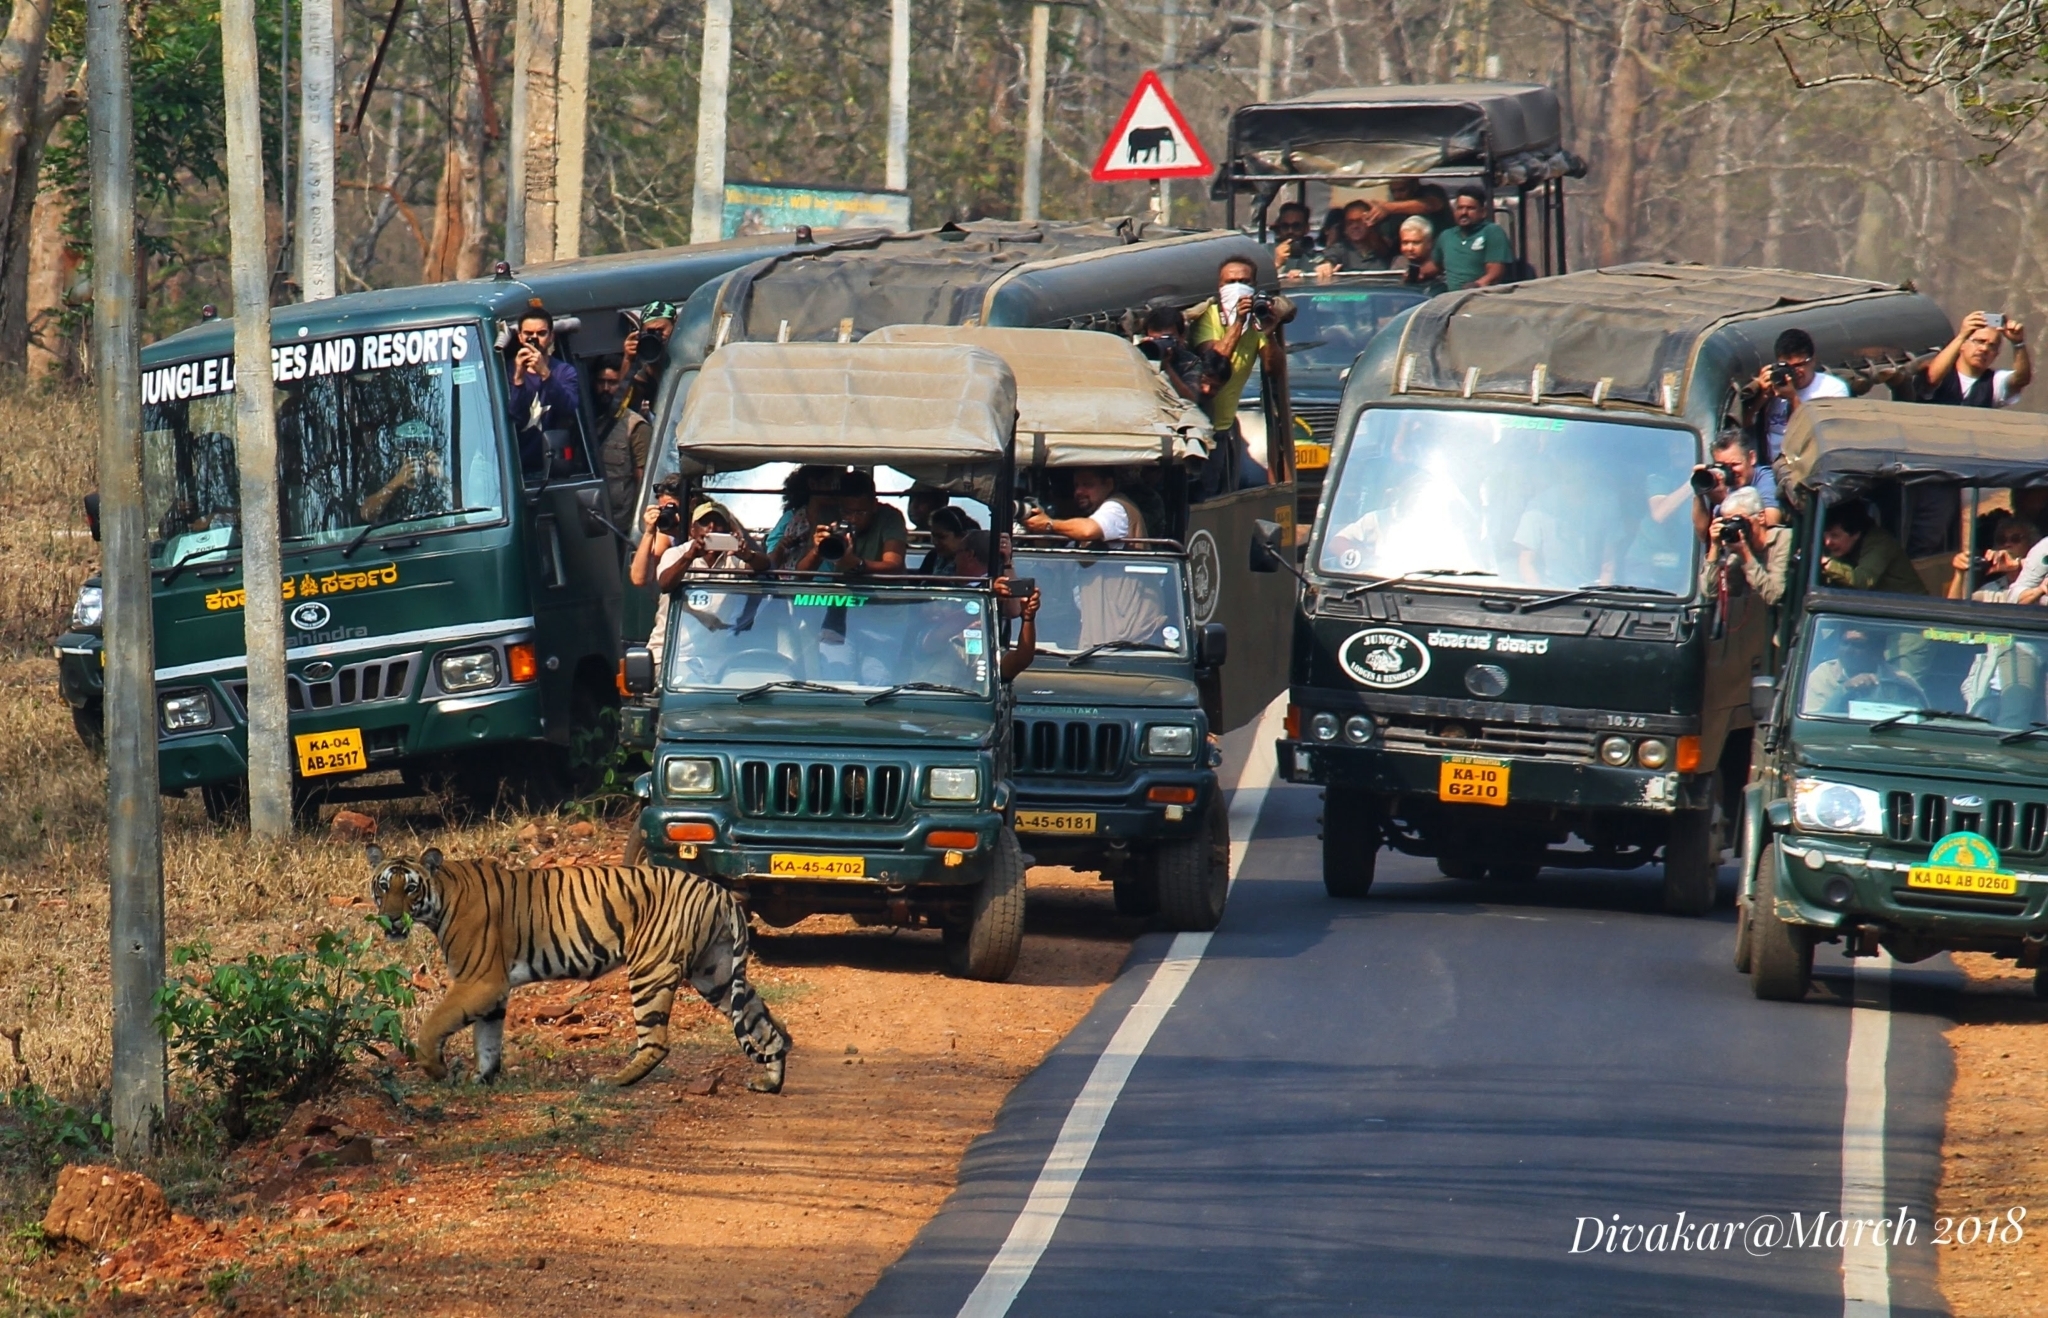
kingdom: Animalia
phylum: Chordata
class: Mammalia
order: Carnivora
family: Felidae
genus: Panthera
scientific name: Panthera tigris
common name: Tiger
